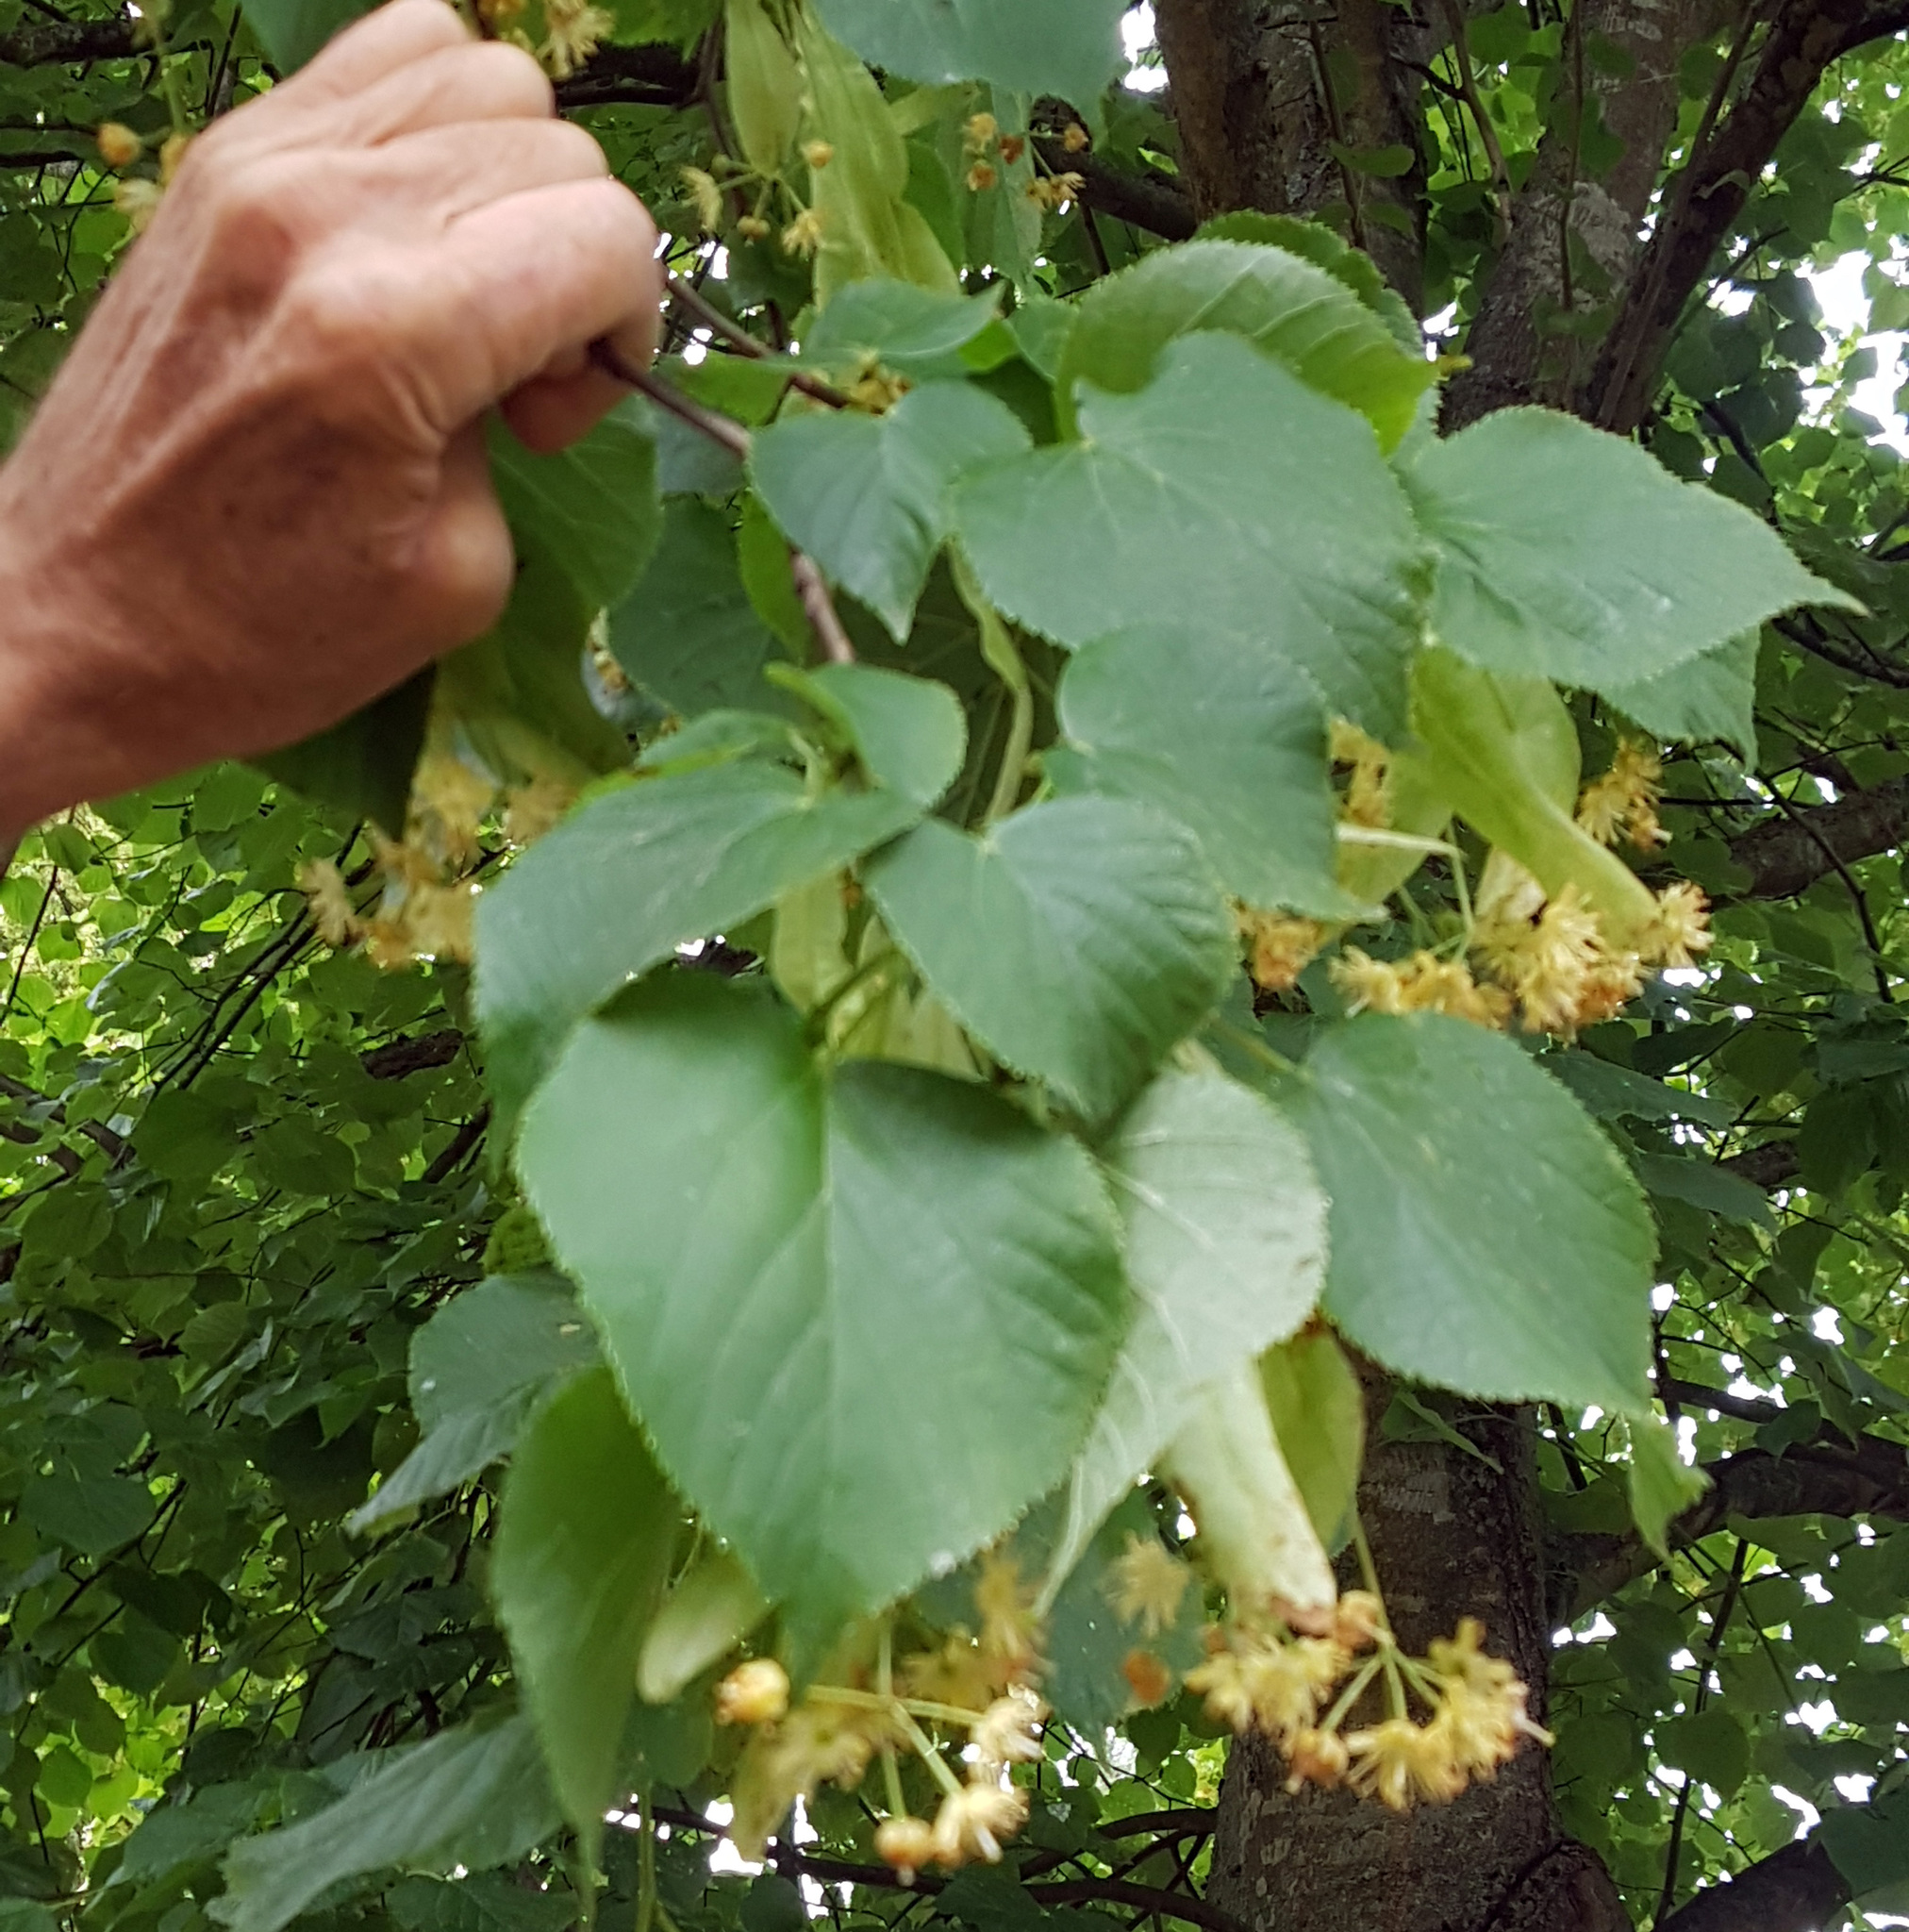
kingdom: Plantae
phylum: Tracheophyta
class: Magnoliopsida
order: Malvales
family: Malvaceae
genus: Tilia
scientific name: Tilia cordata
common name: Small-leaved lime
